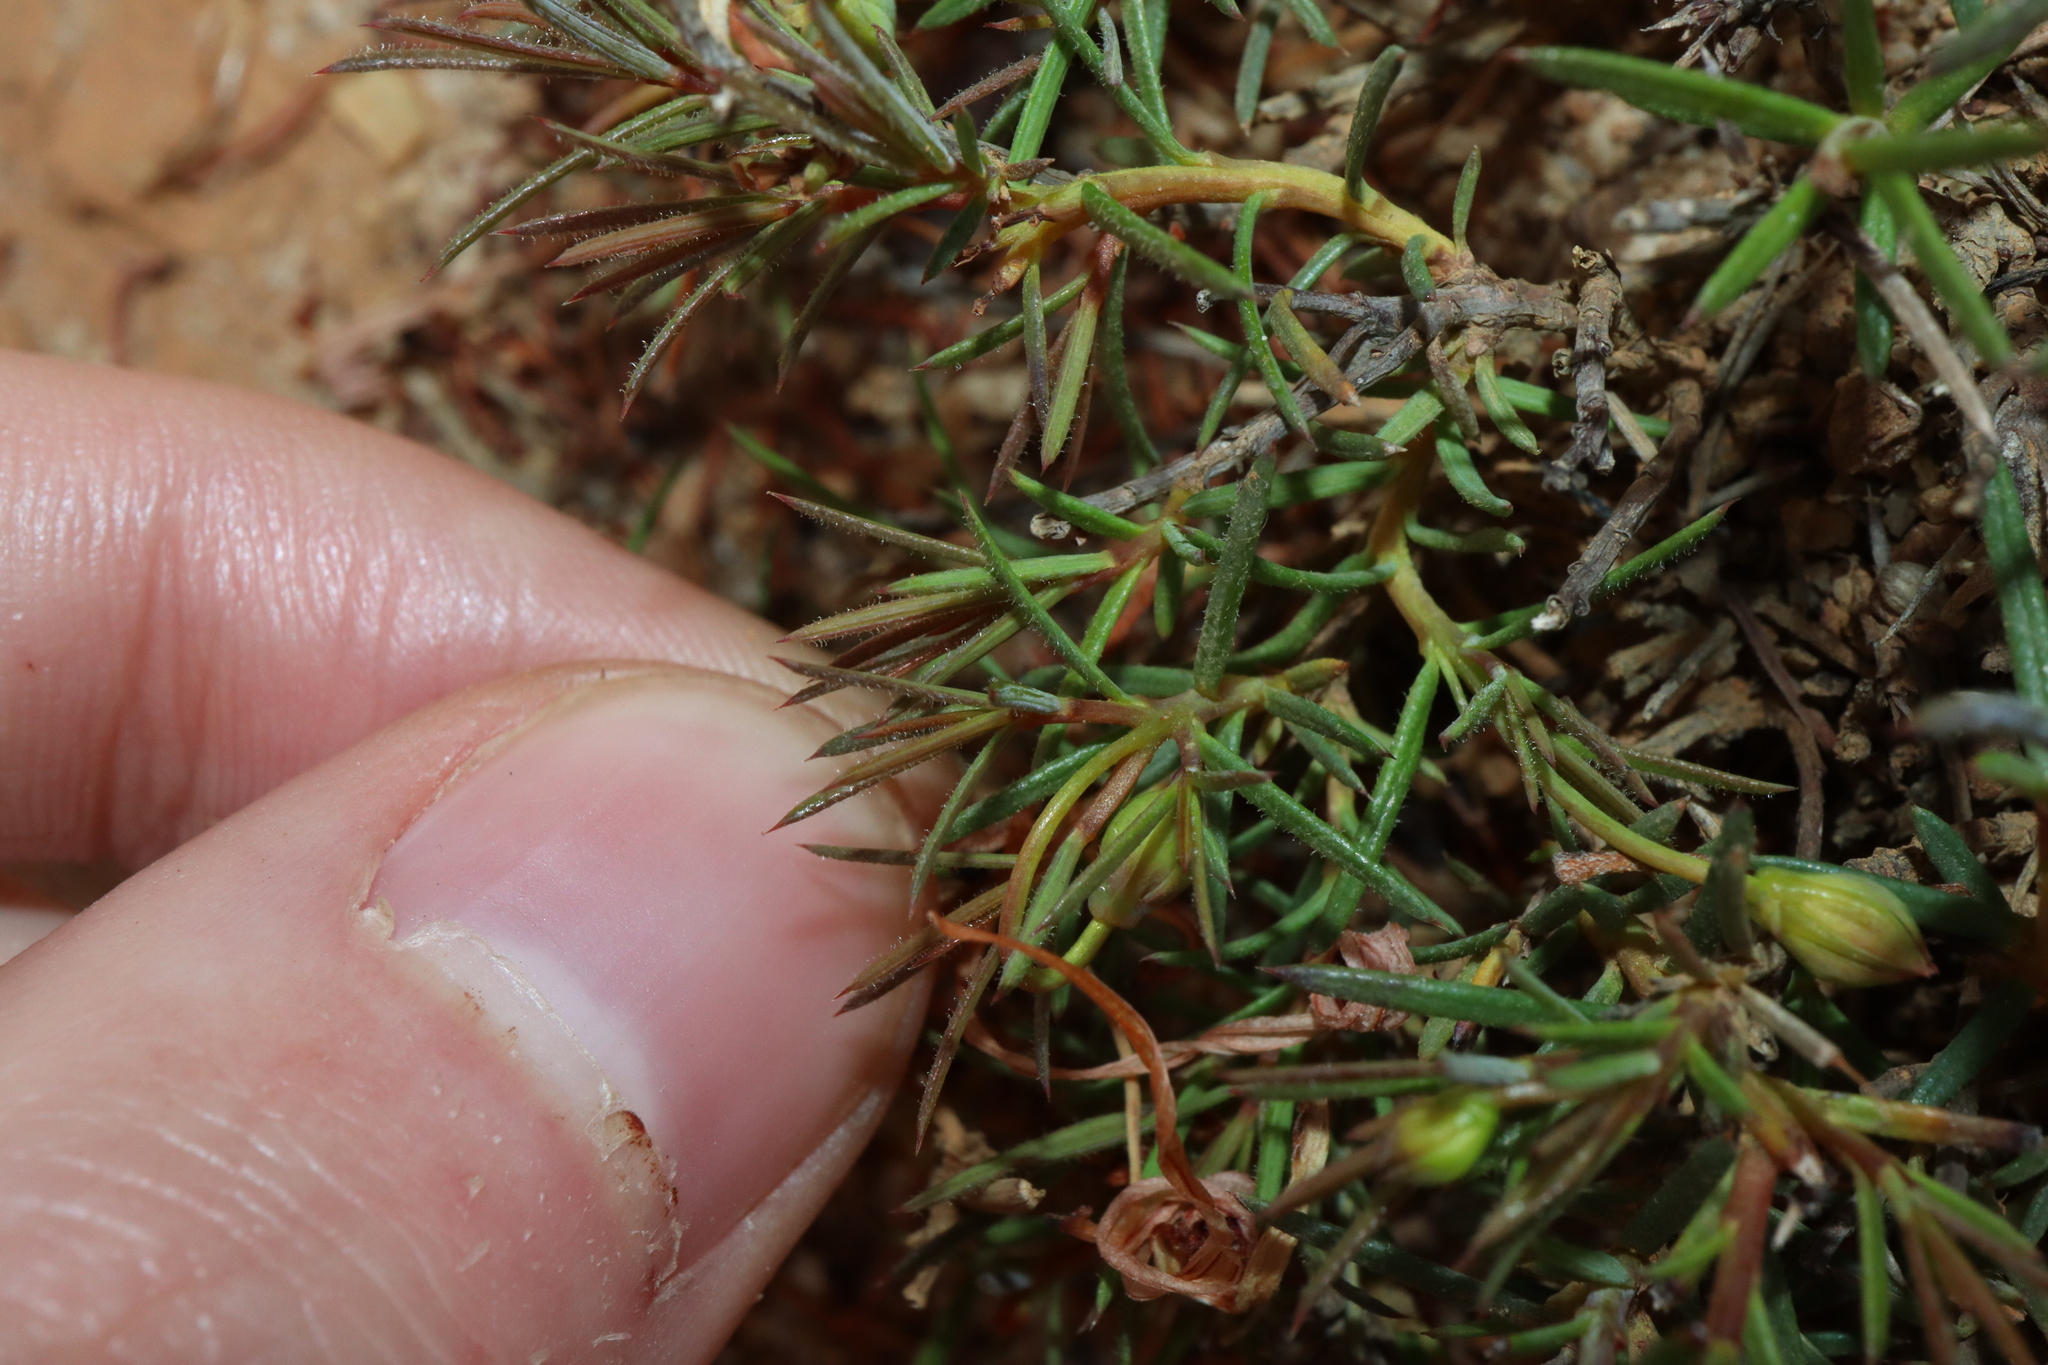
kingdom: Plantae
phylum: Tracheophyta
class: Magnoliopsida
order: Dilleniales
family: Dilleniaceae
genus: Hibbertia
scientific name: Hibbertia
